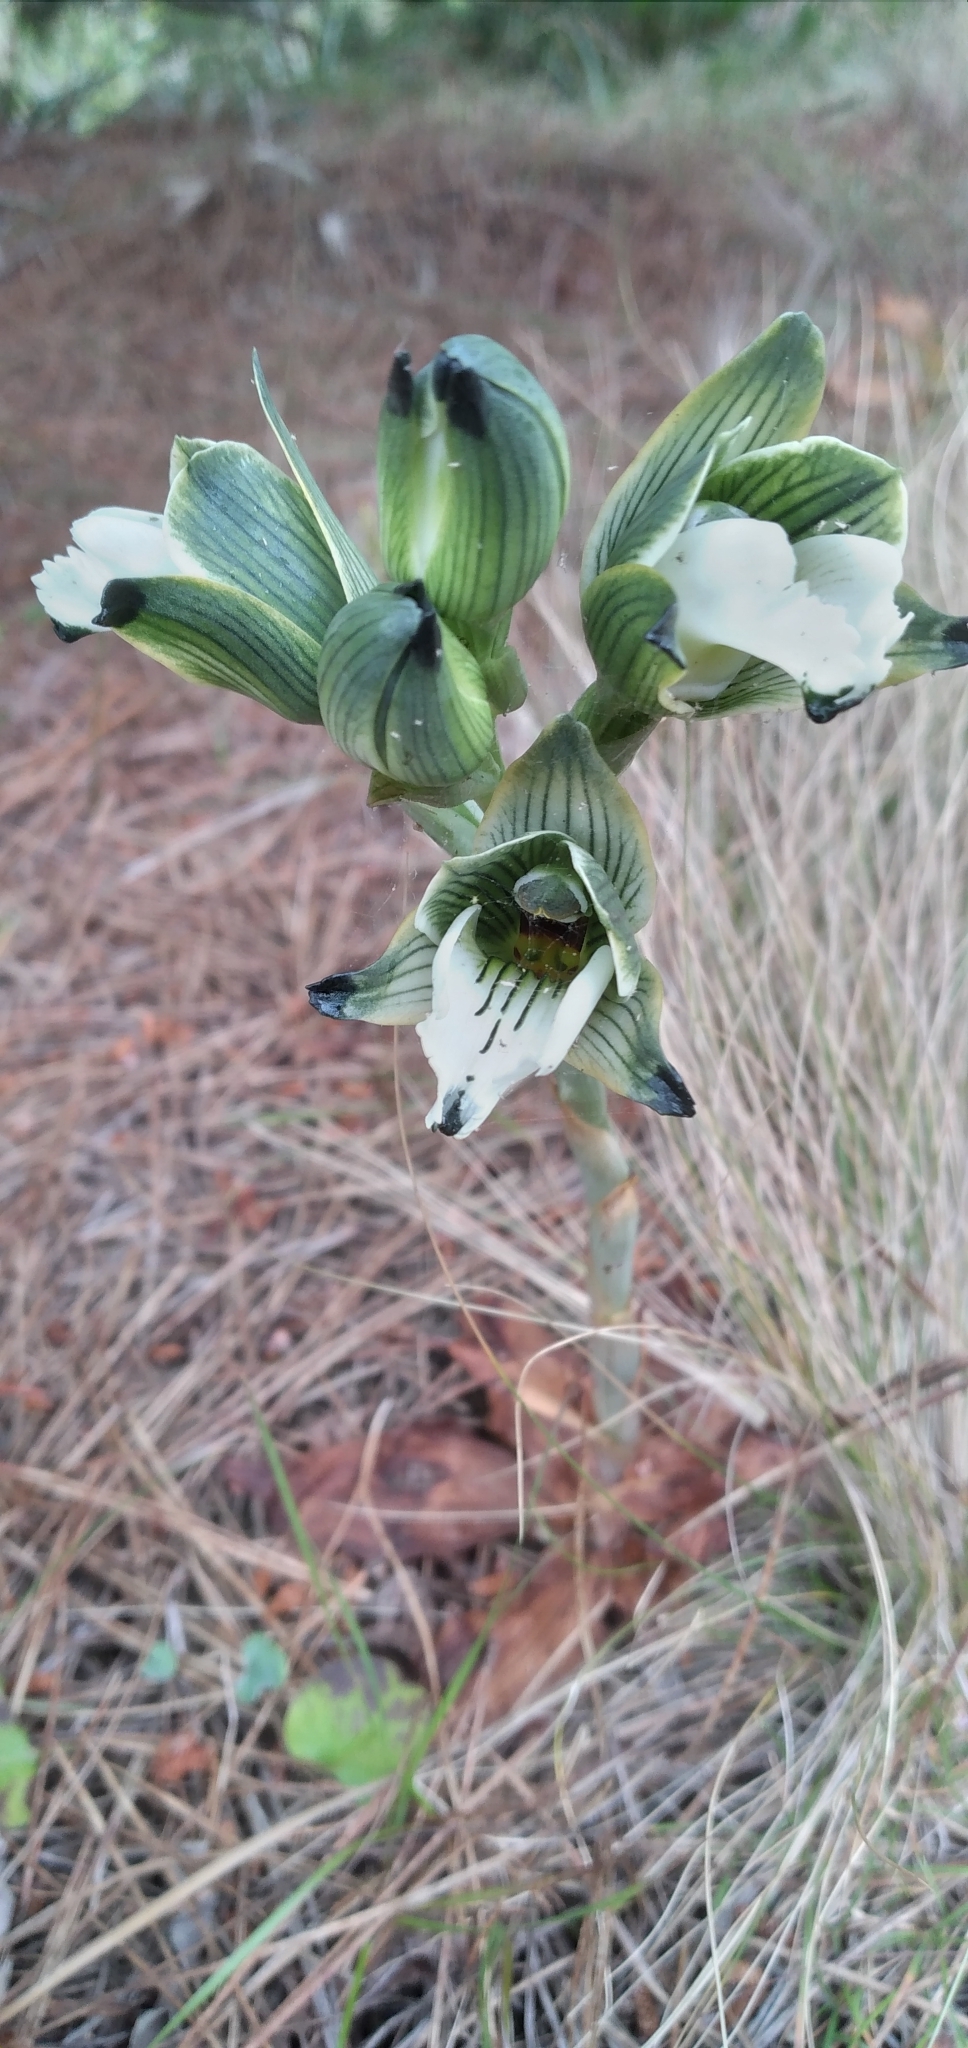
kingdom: Plantae
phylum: Tracheophyta
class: Liliopsida
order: Asparagales
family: Orchidaceae
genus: Chloraea
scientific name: Chloraea bletioides
